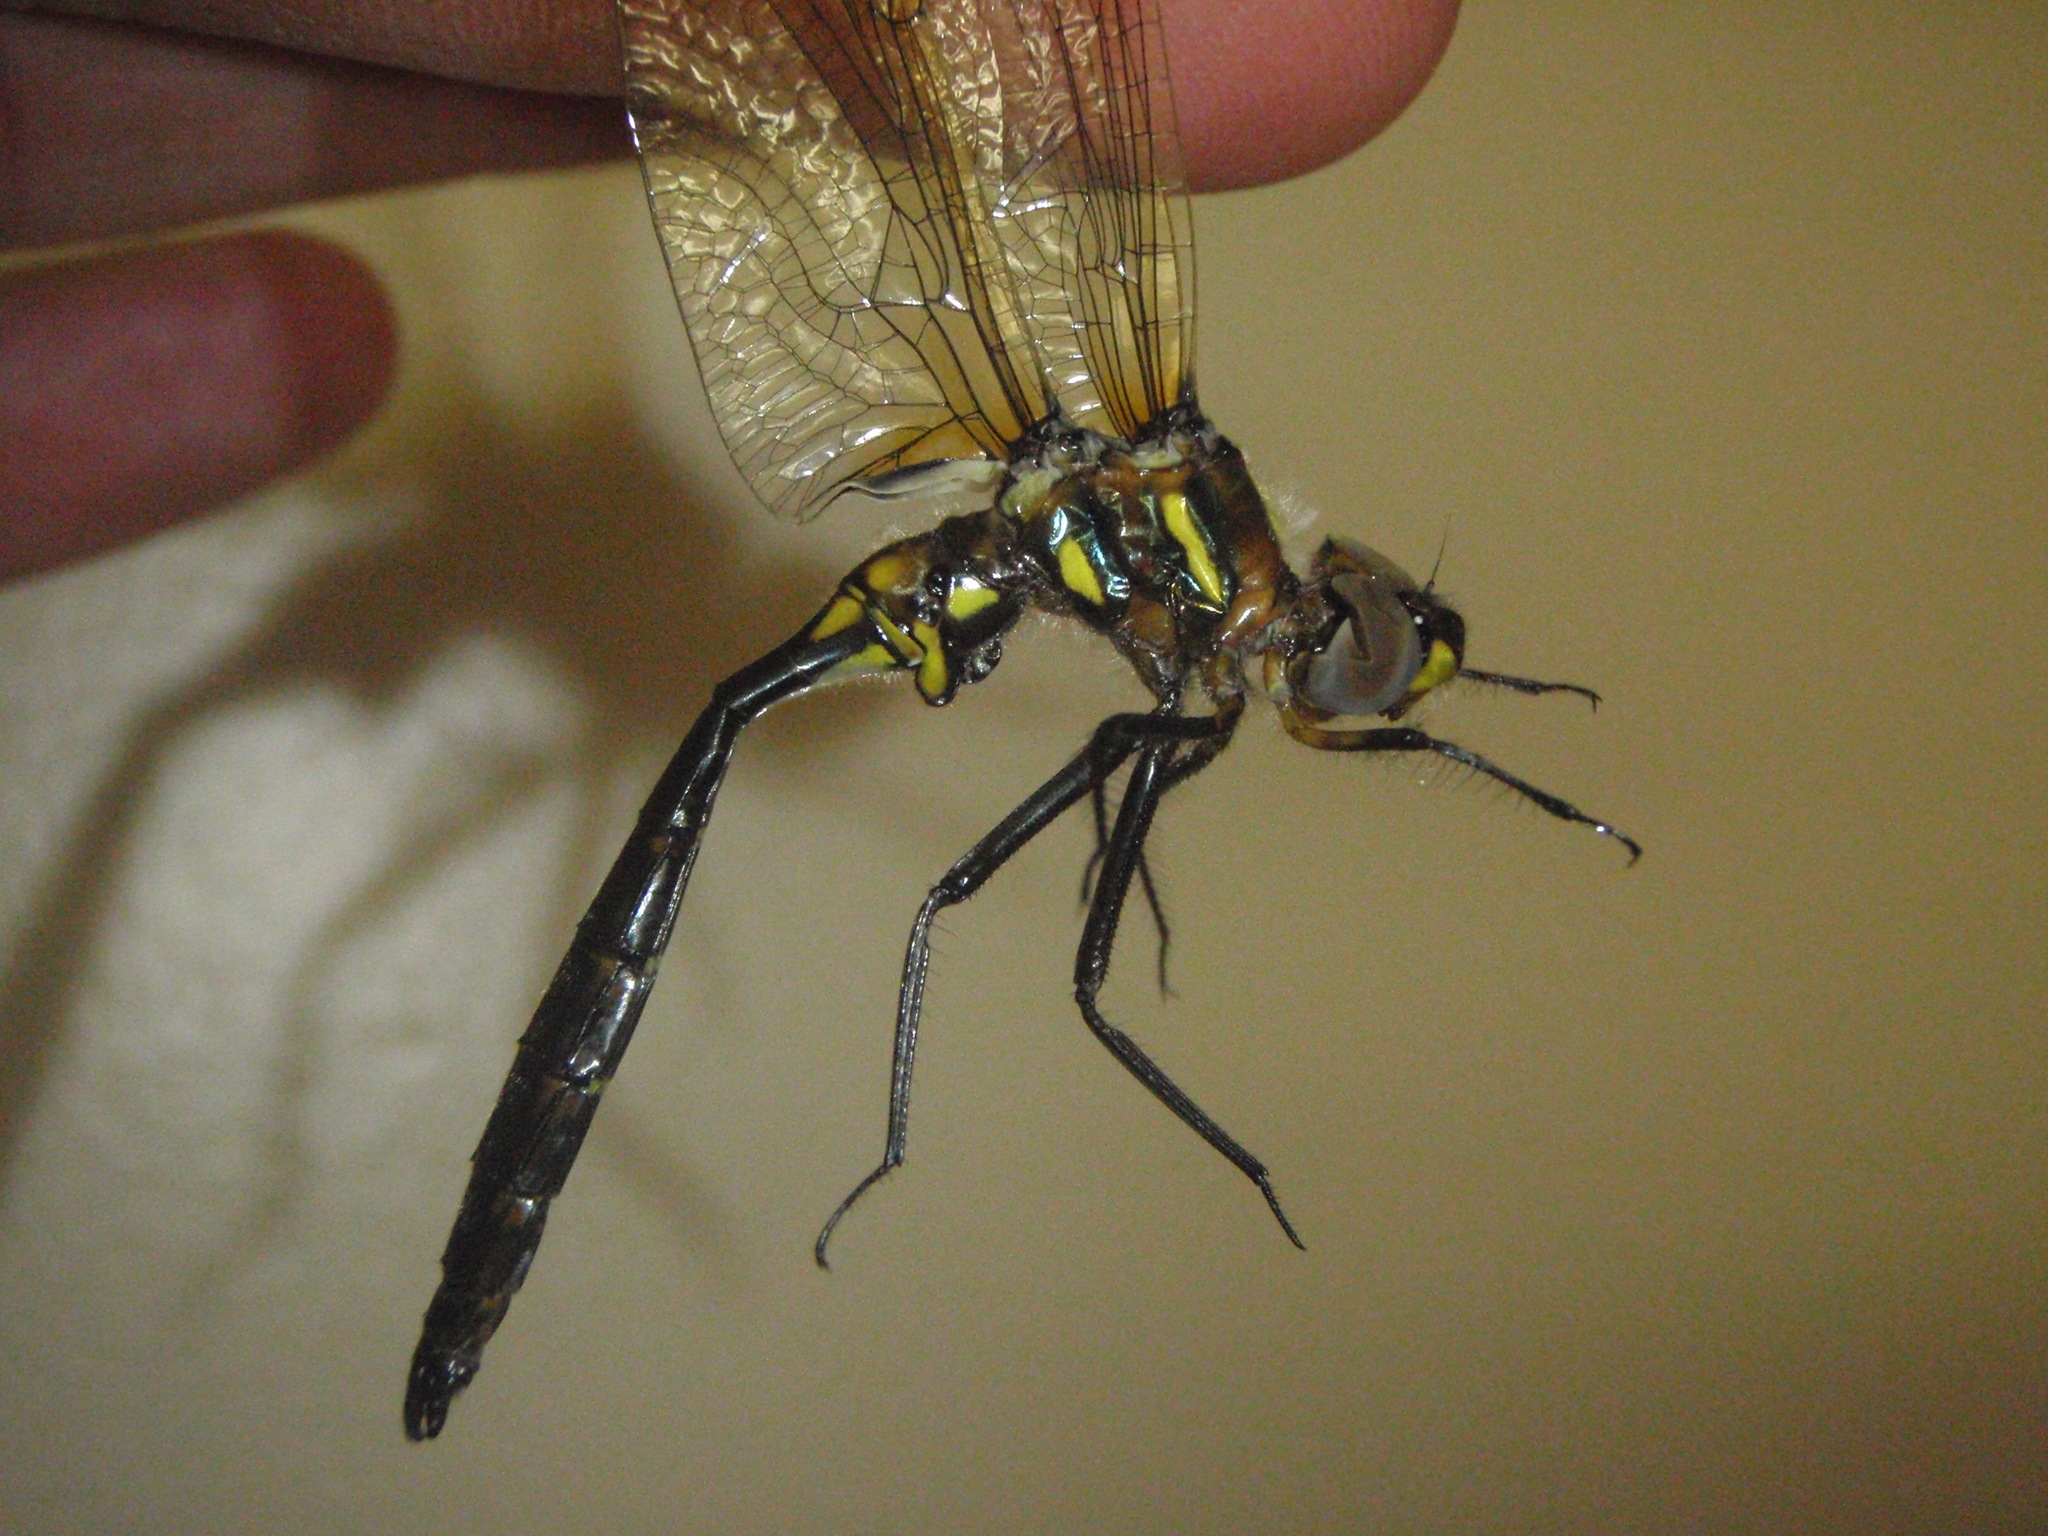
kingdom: Animalia
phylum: Arthropoda
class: Insecta
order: Odonata
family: Corduliidae
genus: Somatochlora
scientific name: Somatochlora ensigera
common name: Plains emerald
